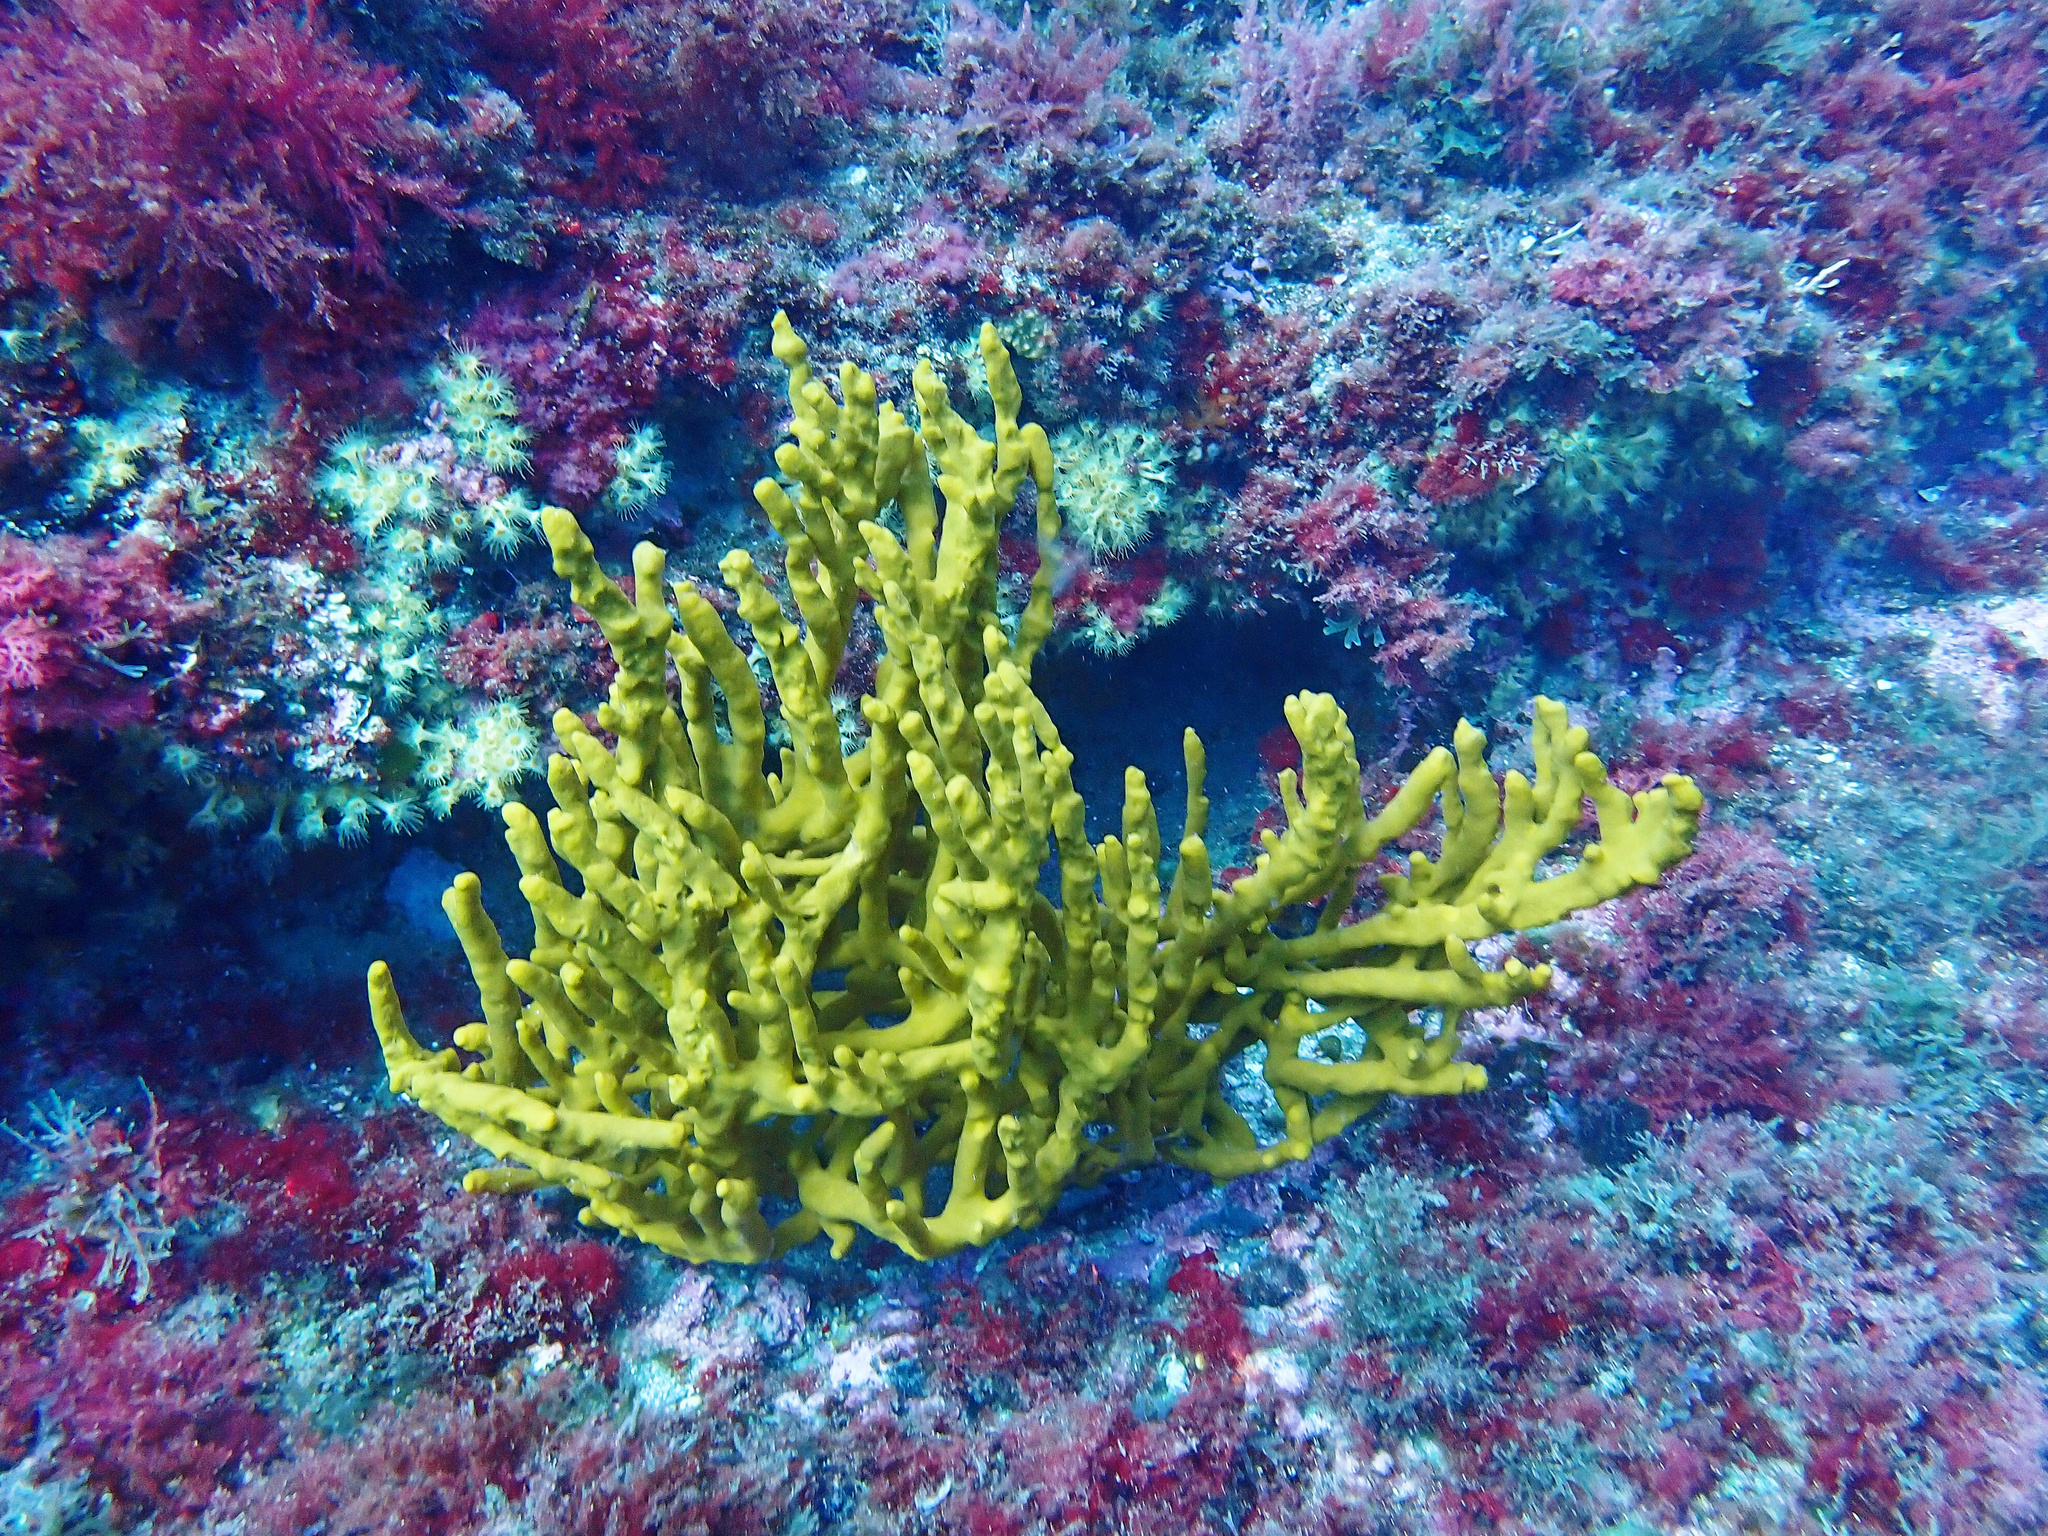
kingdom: Animalia
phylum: Porifera
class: Demospongiae
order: Axinellida
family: Axinellidae
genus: Axinella
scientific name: Axinella polypoides
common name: Common antlers sponge
